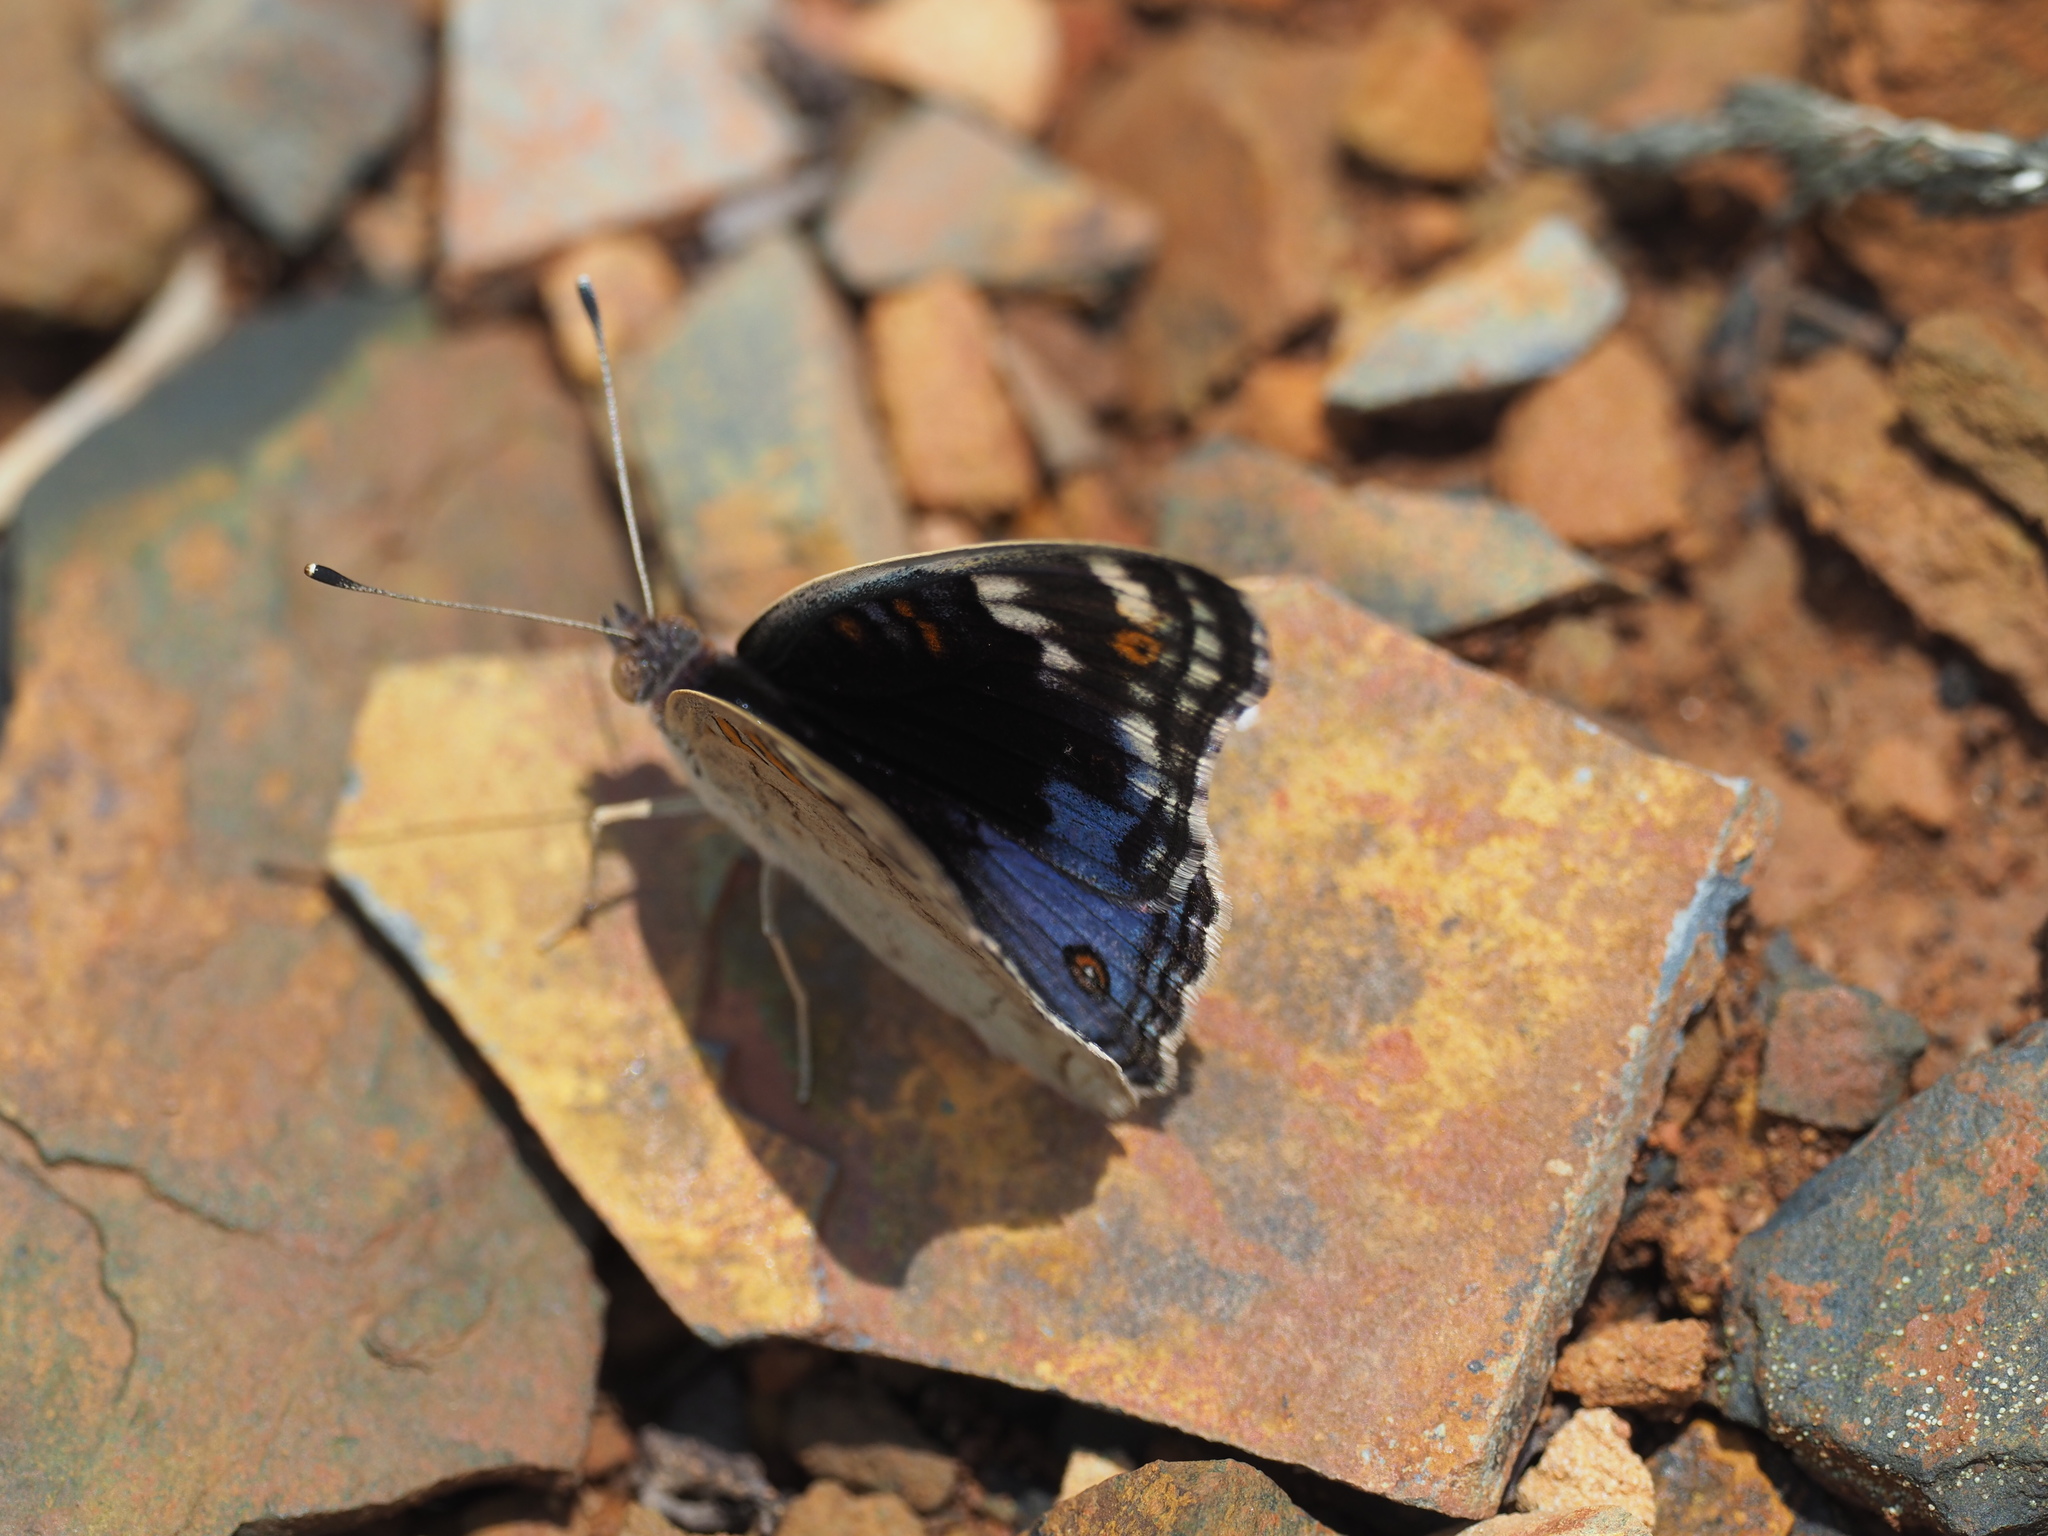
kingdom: Animalia
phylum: Arthropoda
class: Insecta
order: Lepidoptera
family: Nymphalidae
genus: Junonia
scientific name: Junonia orithya
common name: Blue pansy
